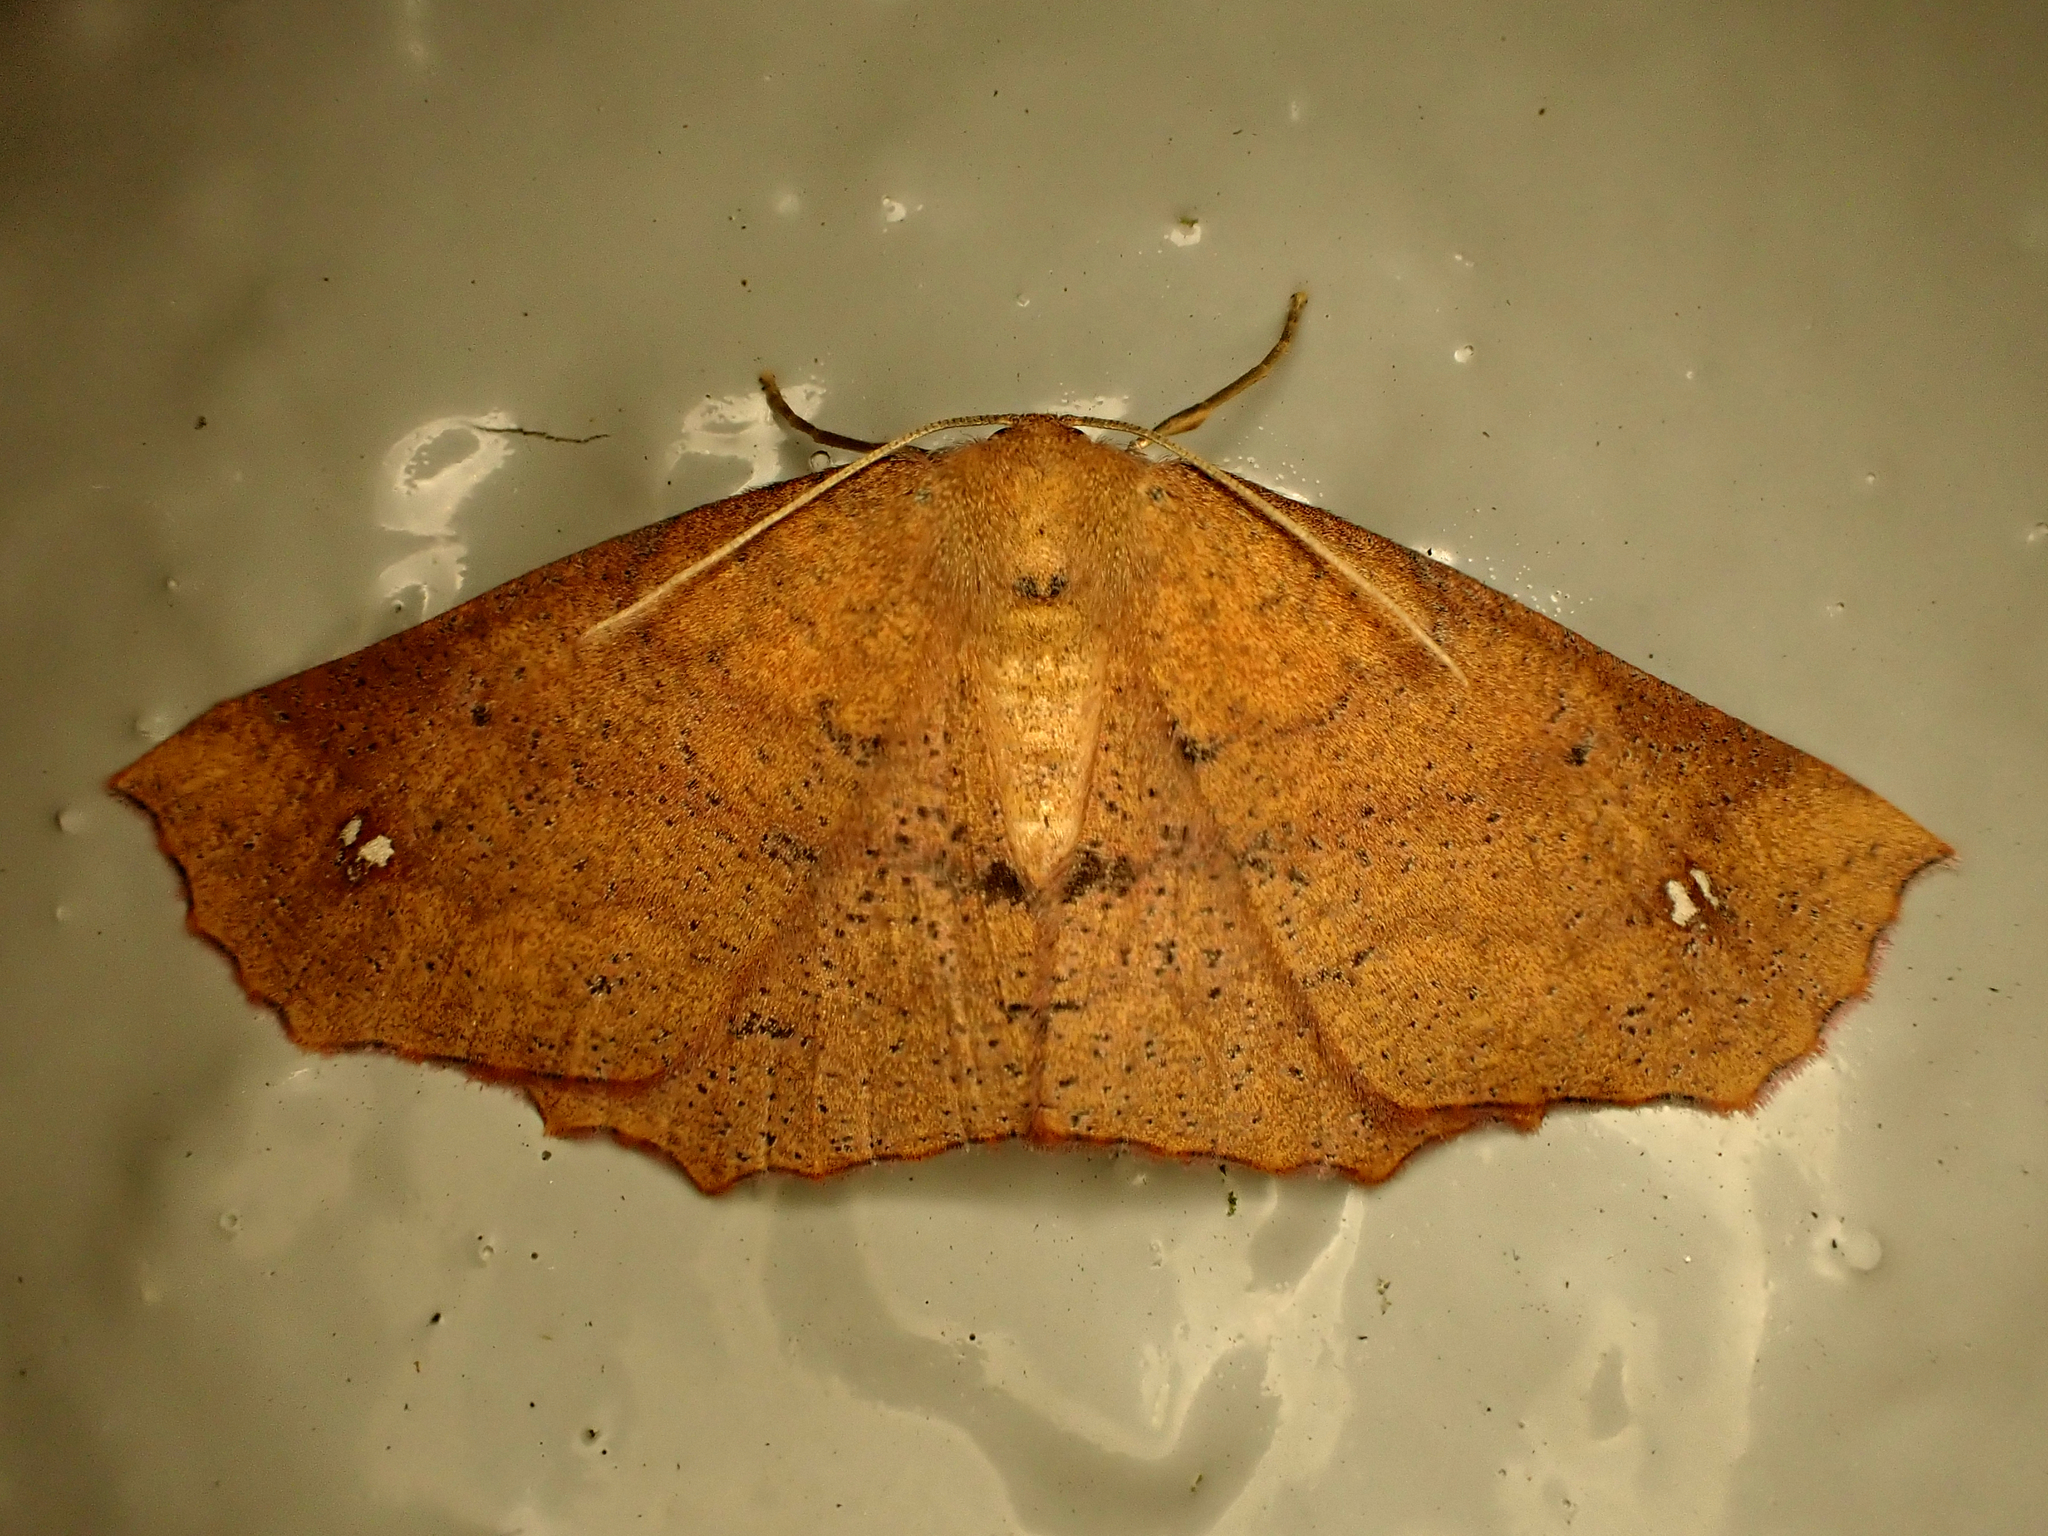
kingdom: Animalia
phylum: Arthropoda
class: Insecta
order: Lepidoptera
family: Geometridae
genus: Xyridacma
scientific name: Xyridacma ustaria
